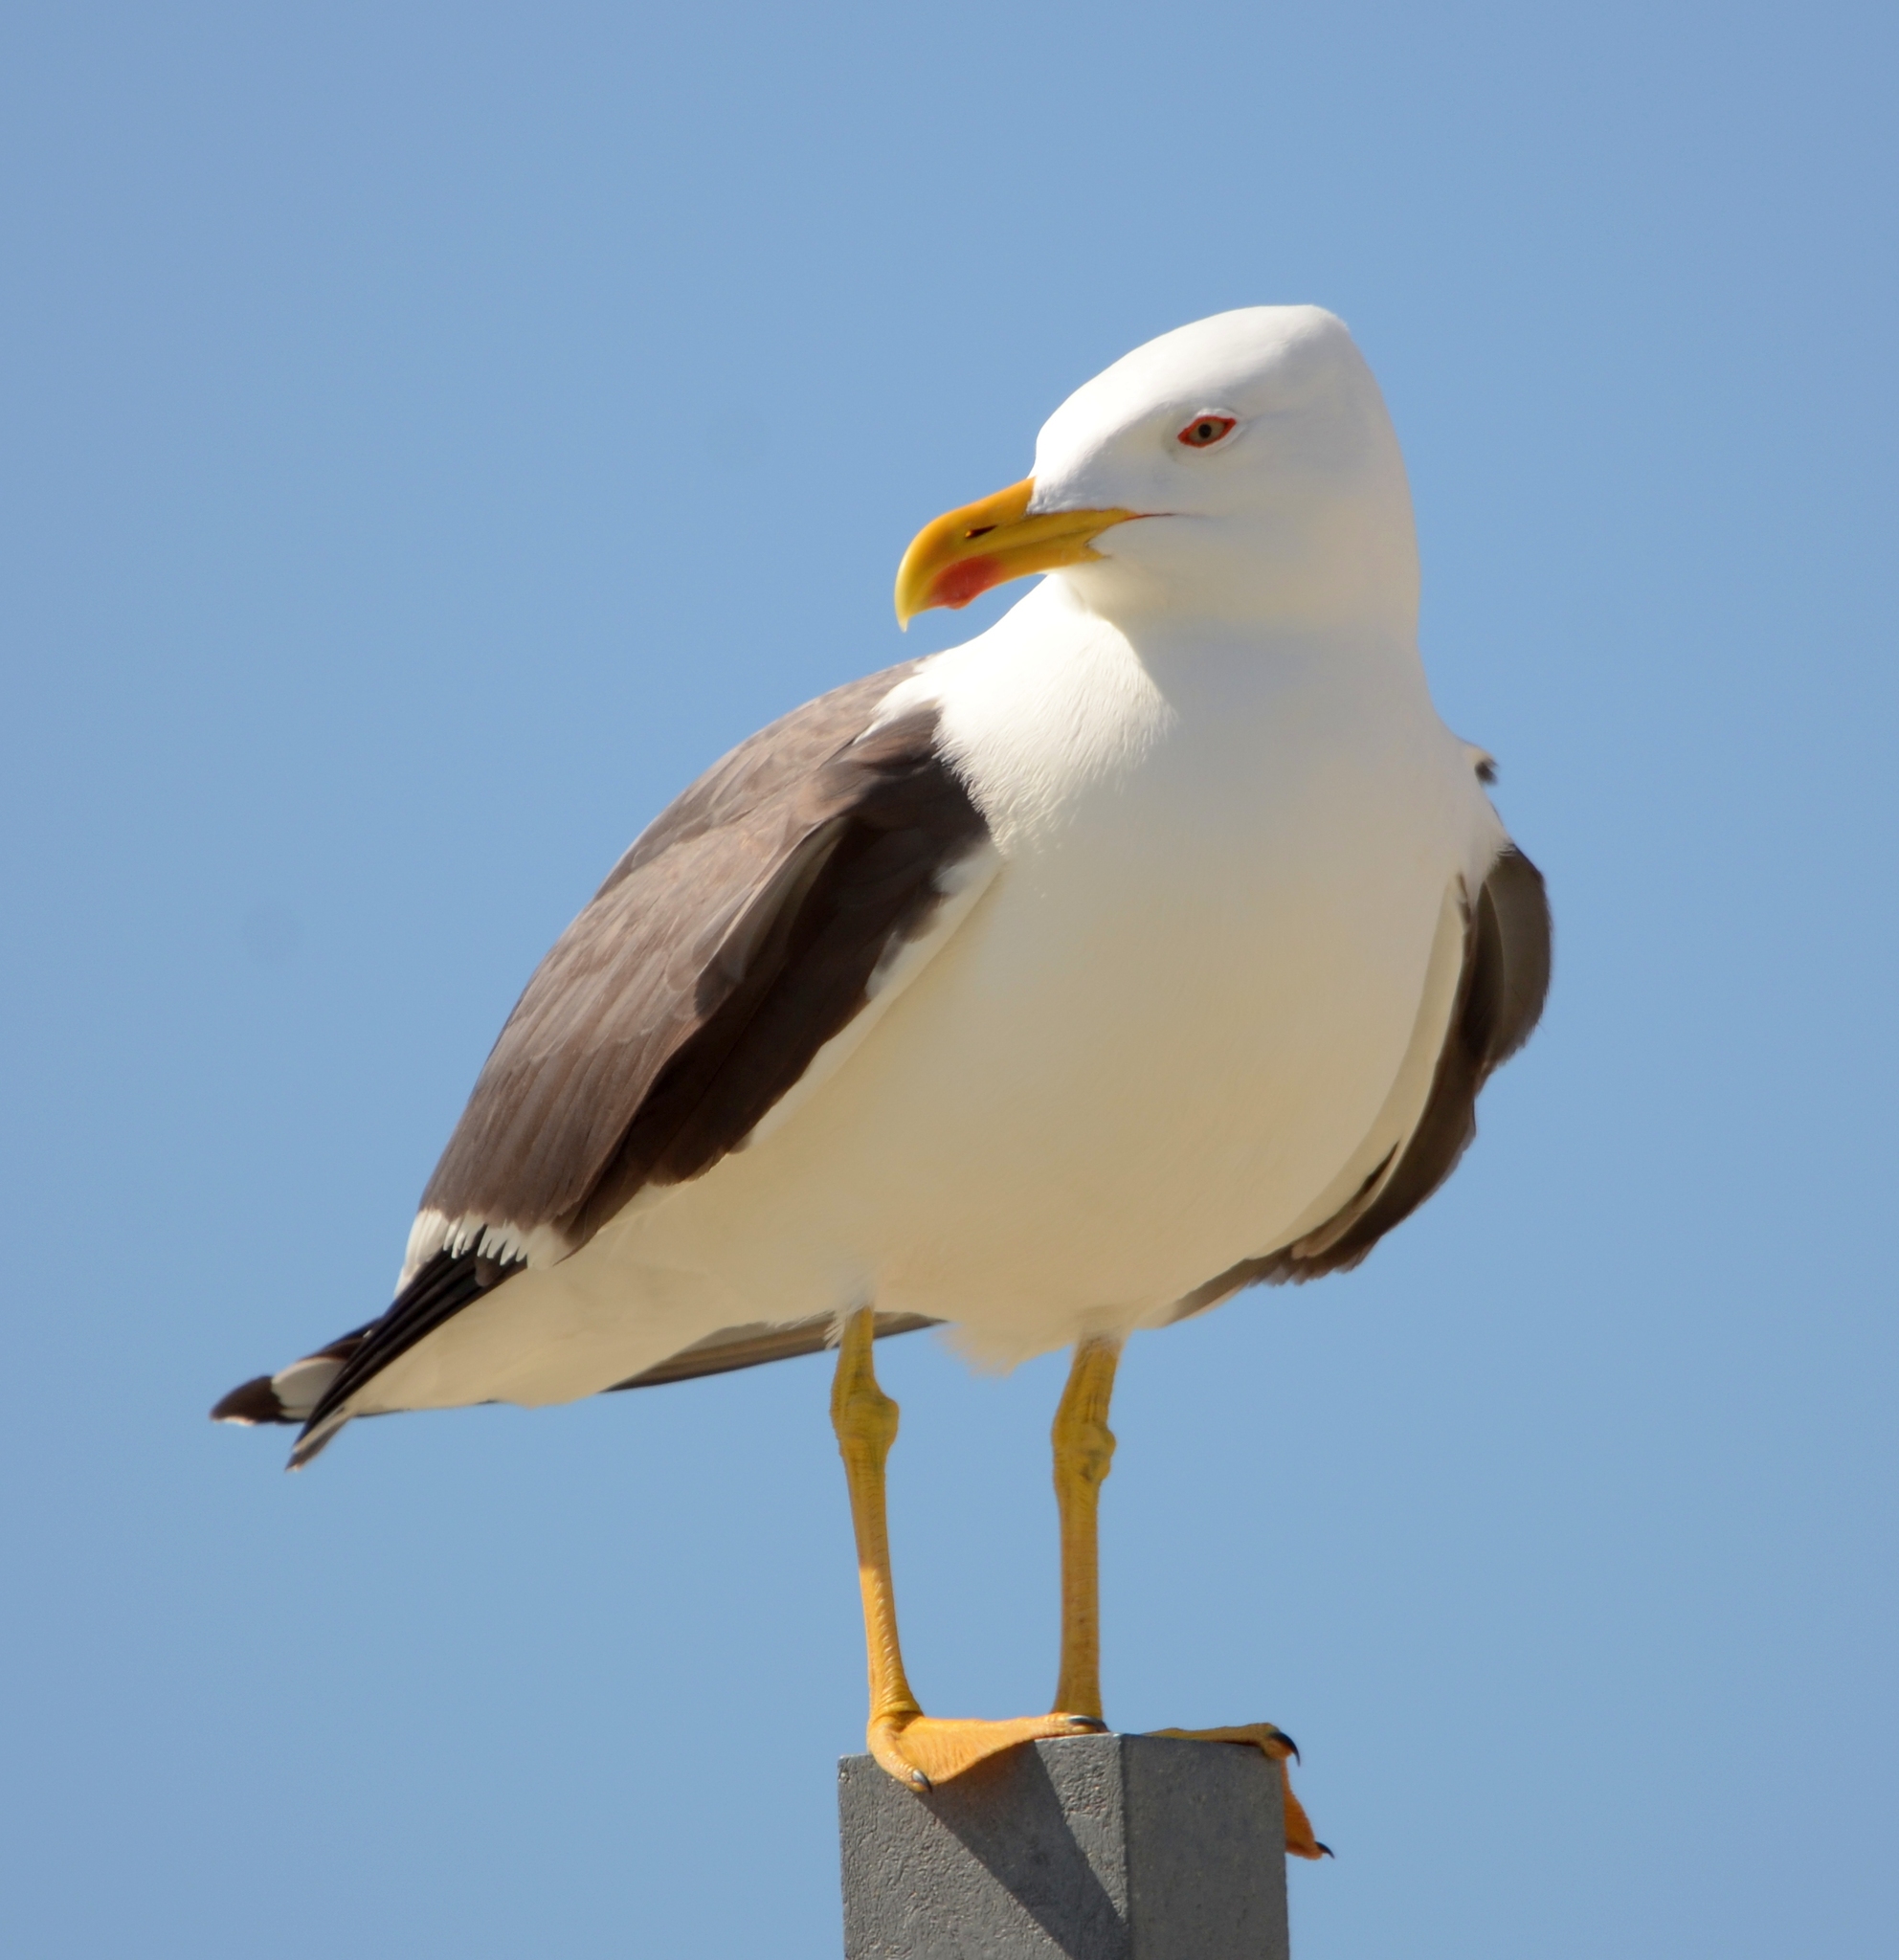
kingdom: Animalia
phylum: Chordata
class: Aves
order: Charadriiformes
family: Laridae
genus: Larus
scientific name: Larus fuscus
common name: Lesser black-backed gull
